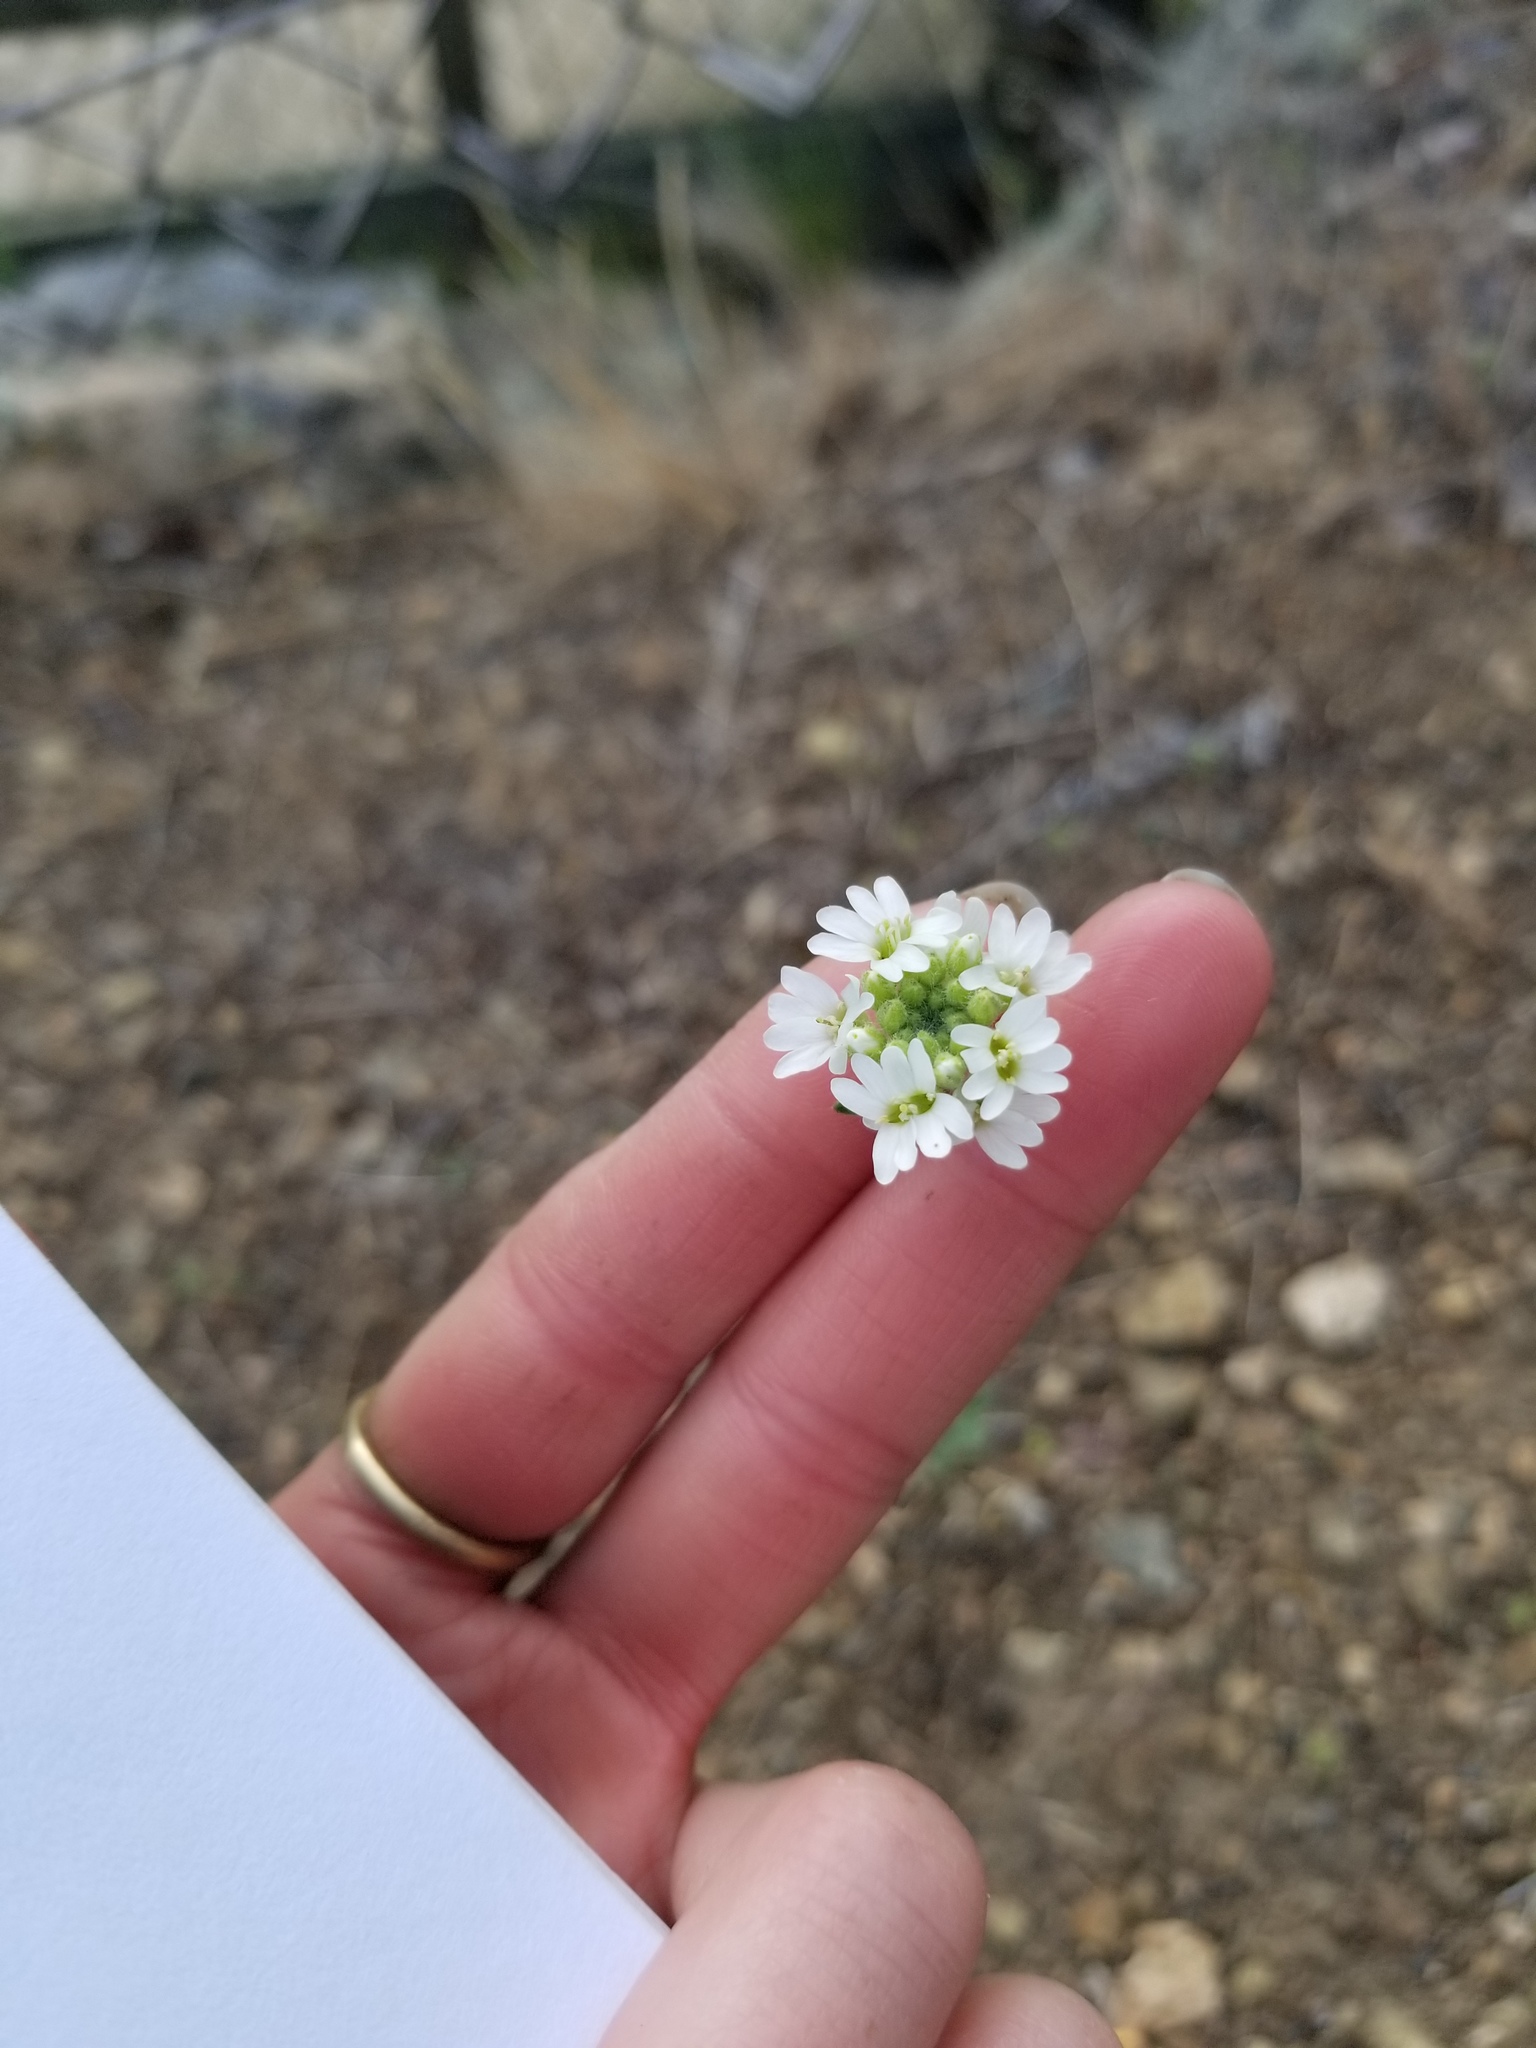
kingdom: Plantae
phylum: Tracheophyta
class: Magnoliopsida
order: Brassicales
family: Brassicaceae
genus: Berteroa
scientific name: Berteroa incana
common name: Hoary alison
